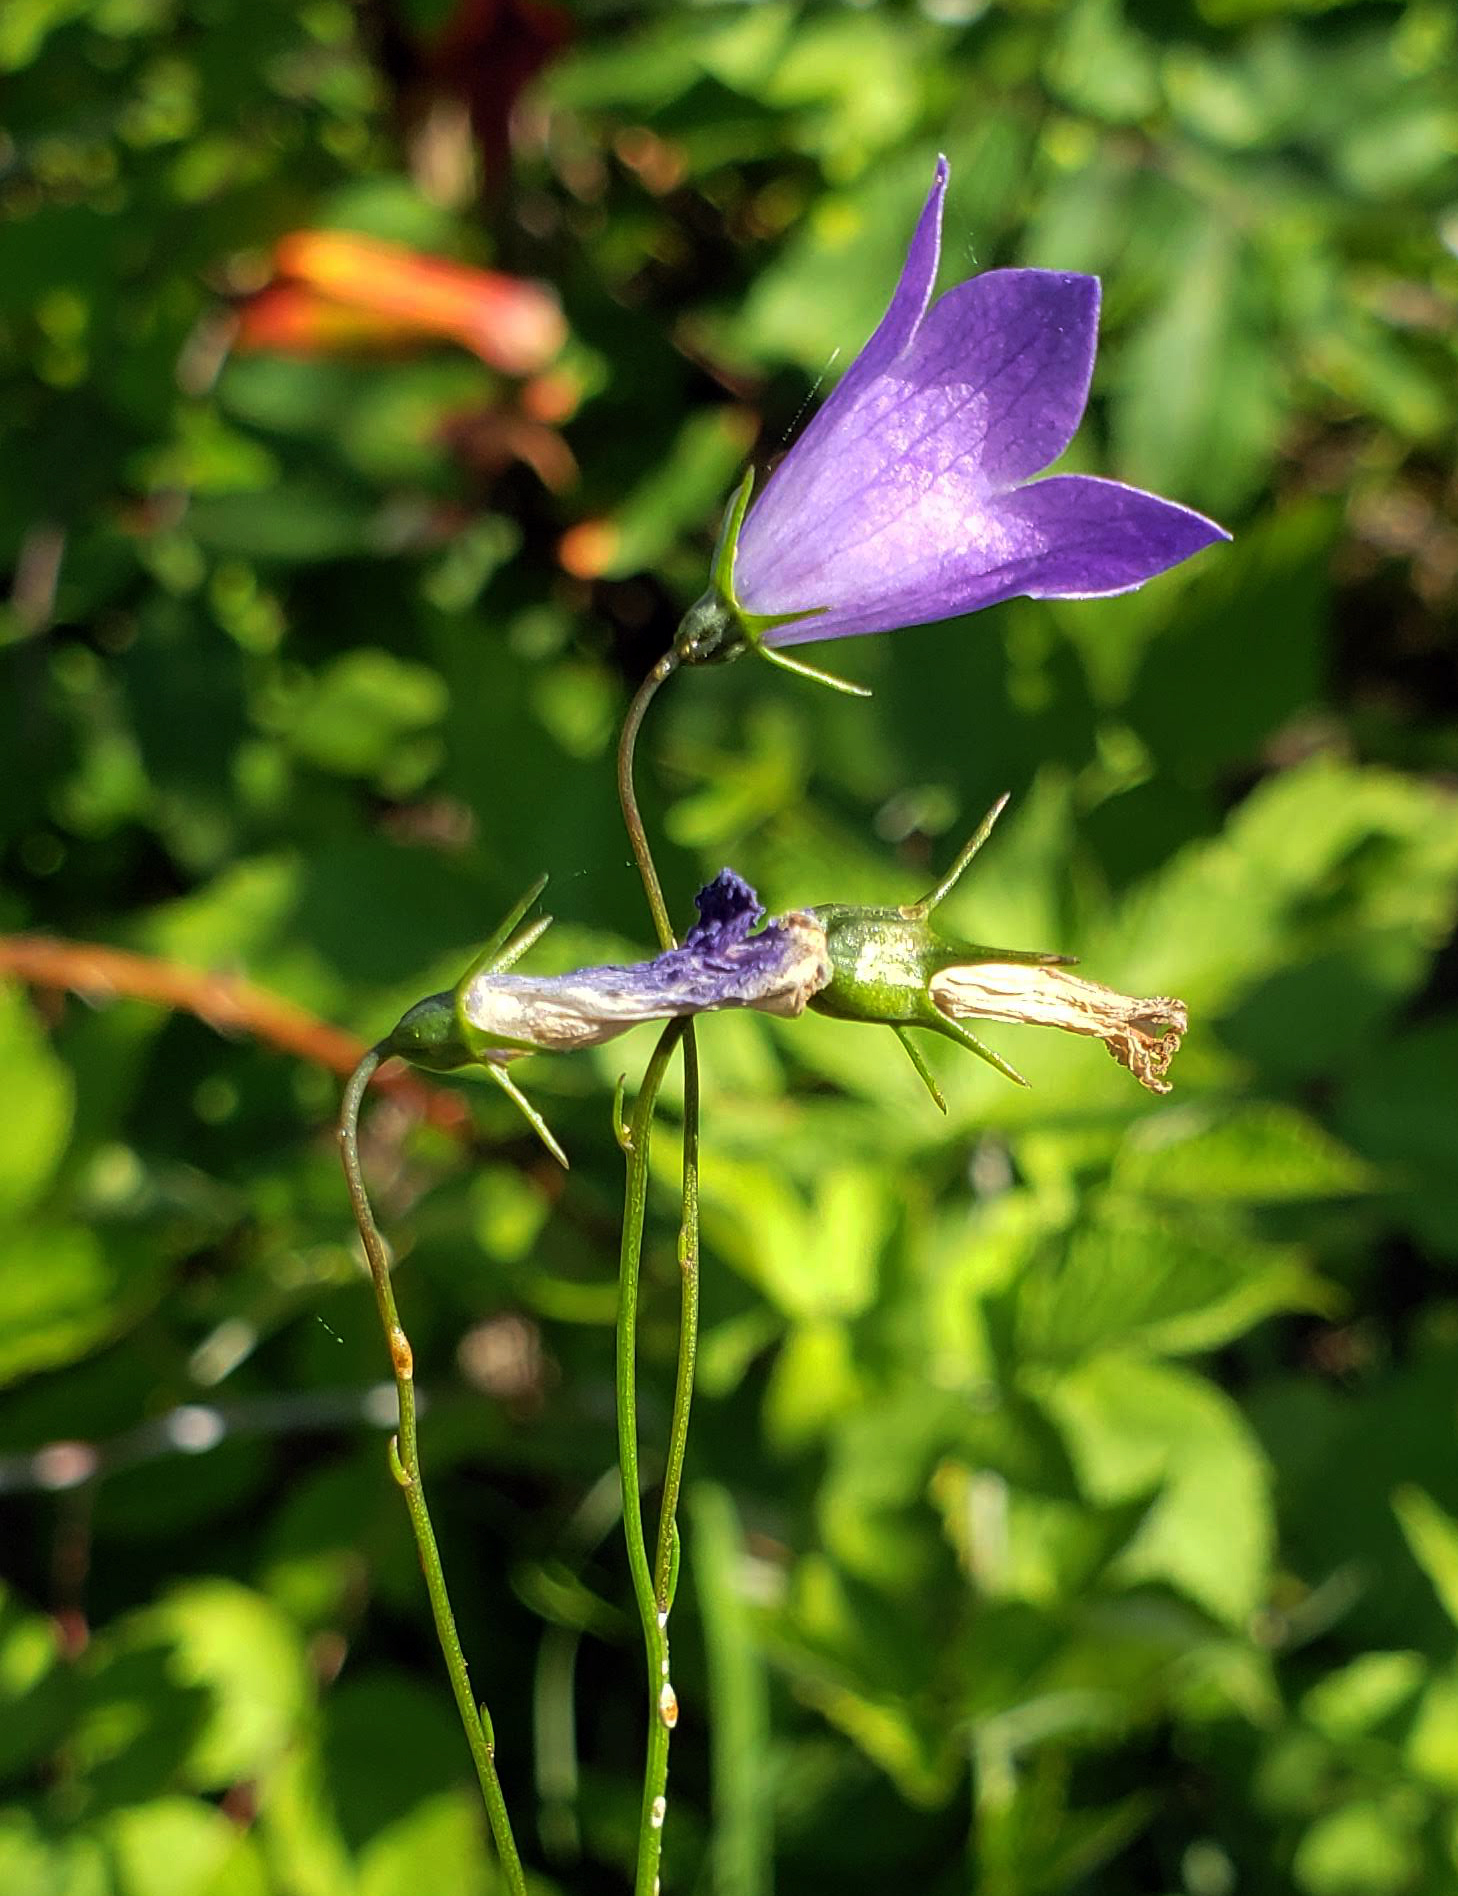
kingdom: Plantae
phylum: Tracheophyta
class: Magnoliopsida
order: Asterales
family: Campanulaceae
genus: Campanula
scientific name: Campanula intercedens
